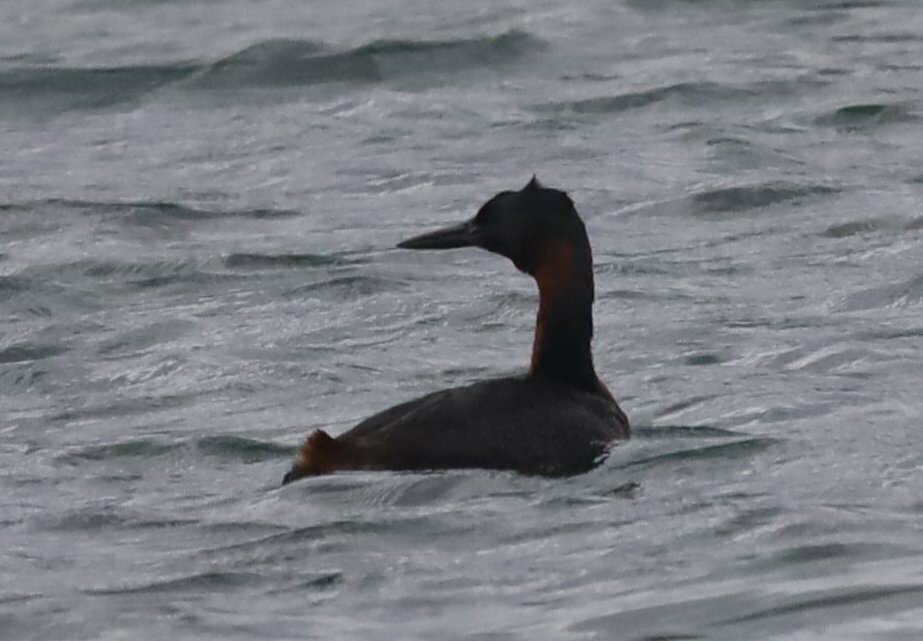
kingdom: Animalia
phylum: Chordata
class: Aves
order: Podicipediformes
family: Podicipedidae
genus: Podiceps
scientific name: Podiceps major
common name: Great grebe
